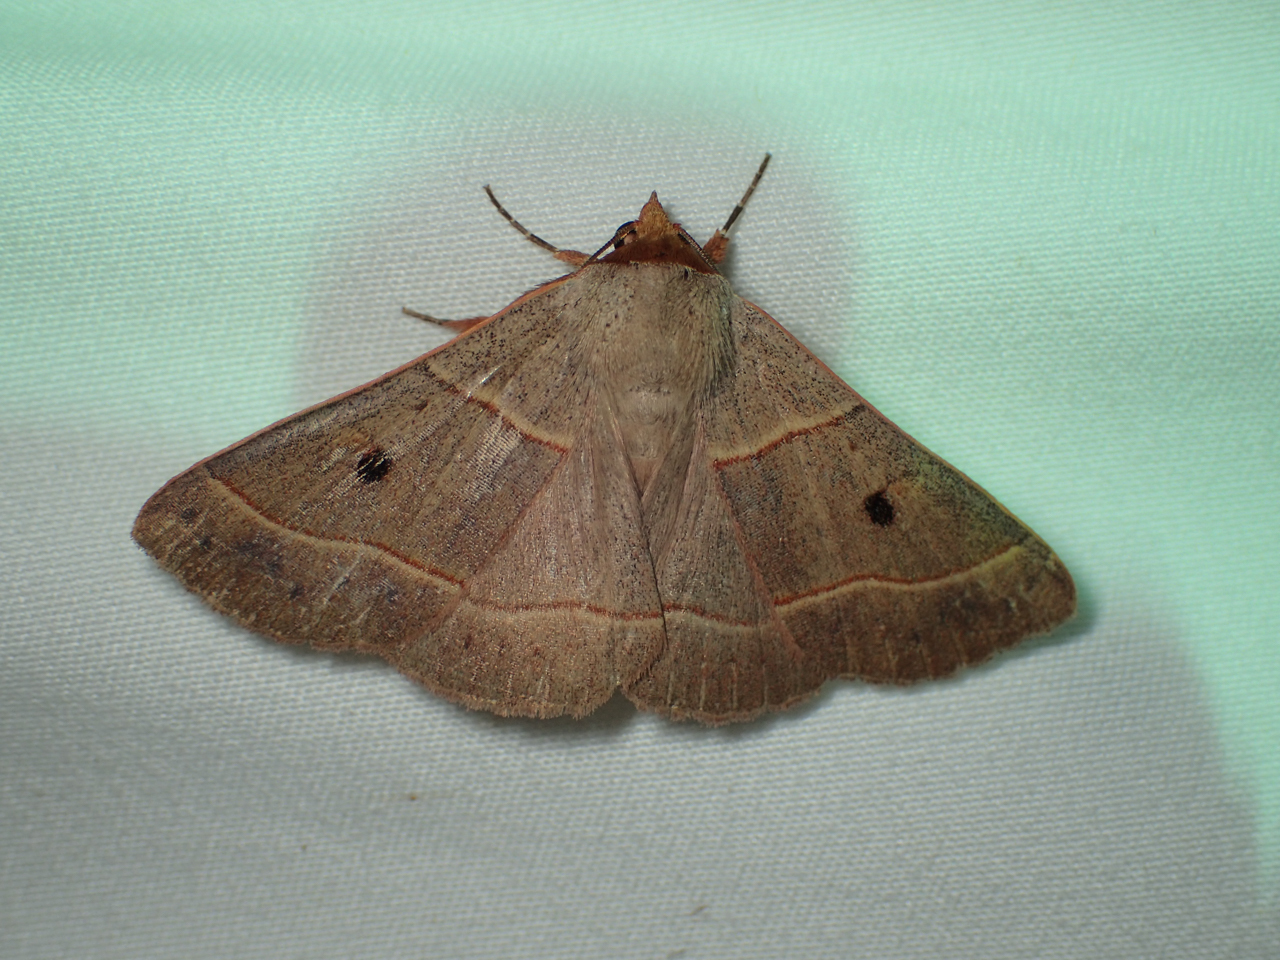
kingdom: Animalia
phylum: Arthropoda
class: Insecta
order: Lepidoptera
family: Erebidae
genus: Panopoda
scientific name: Panopoda rufimargo
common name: Red-lined panopoda moth
